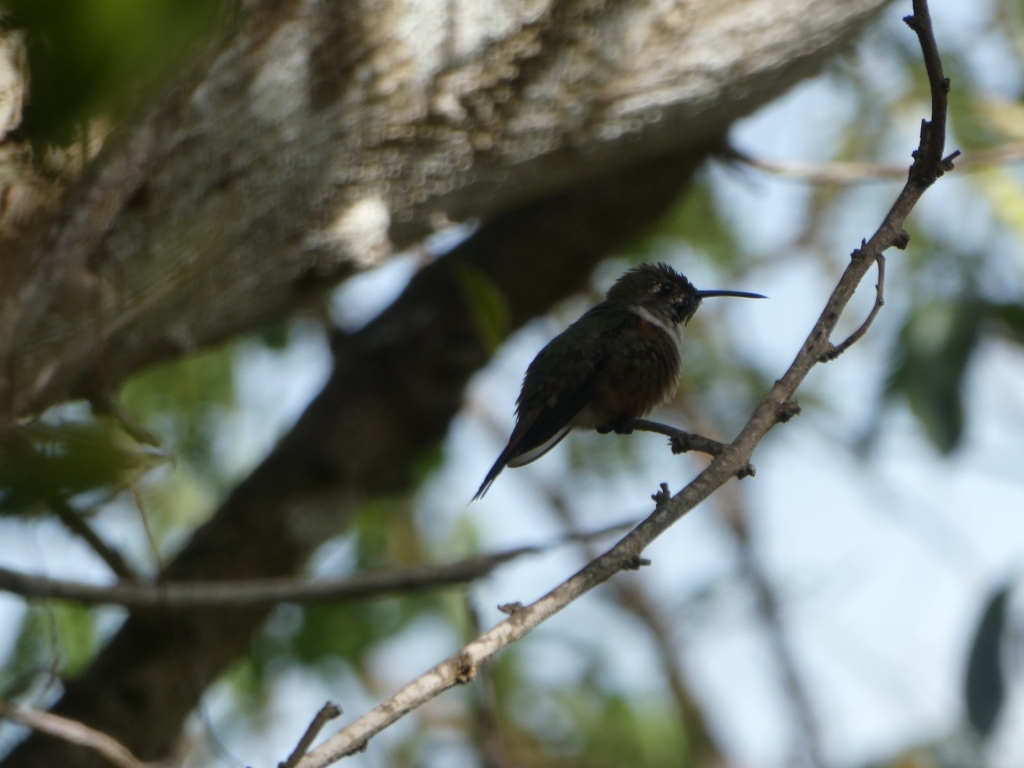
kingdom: Animalia
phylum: Chordata
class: Aves
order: Apodiformes
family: Trochilidae
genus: Nesophlox
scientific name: Nesophlox evelynae
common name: Bahama woodstar
